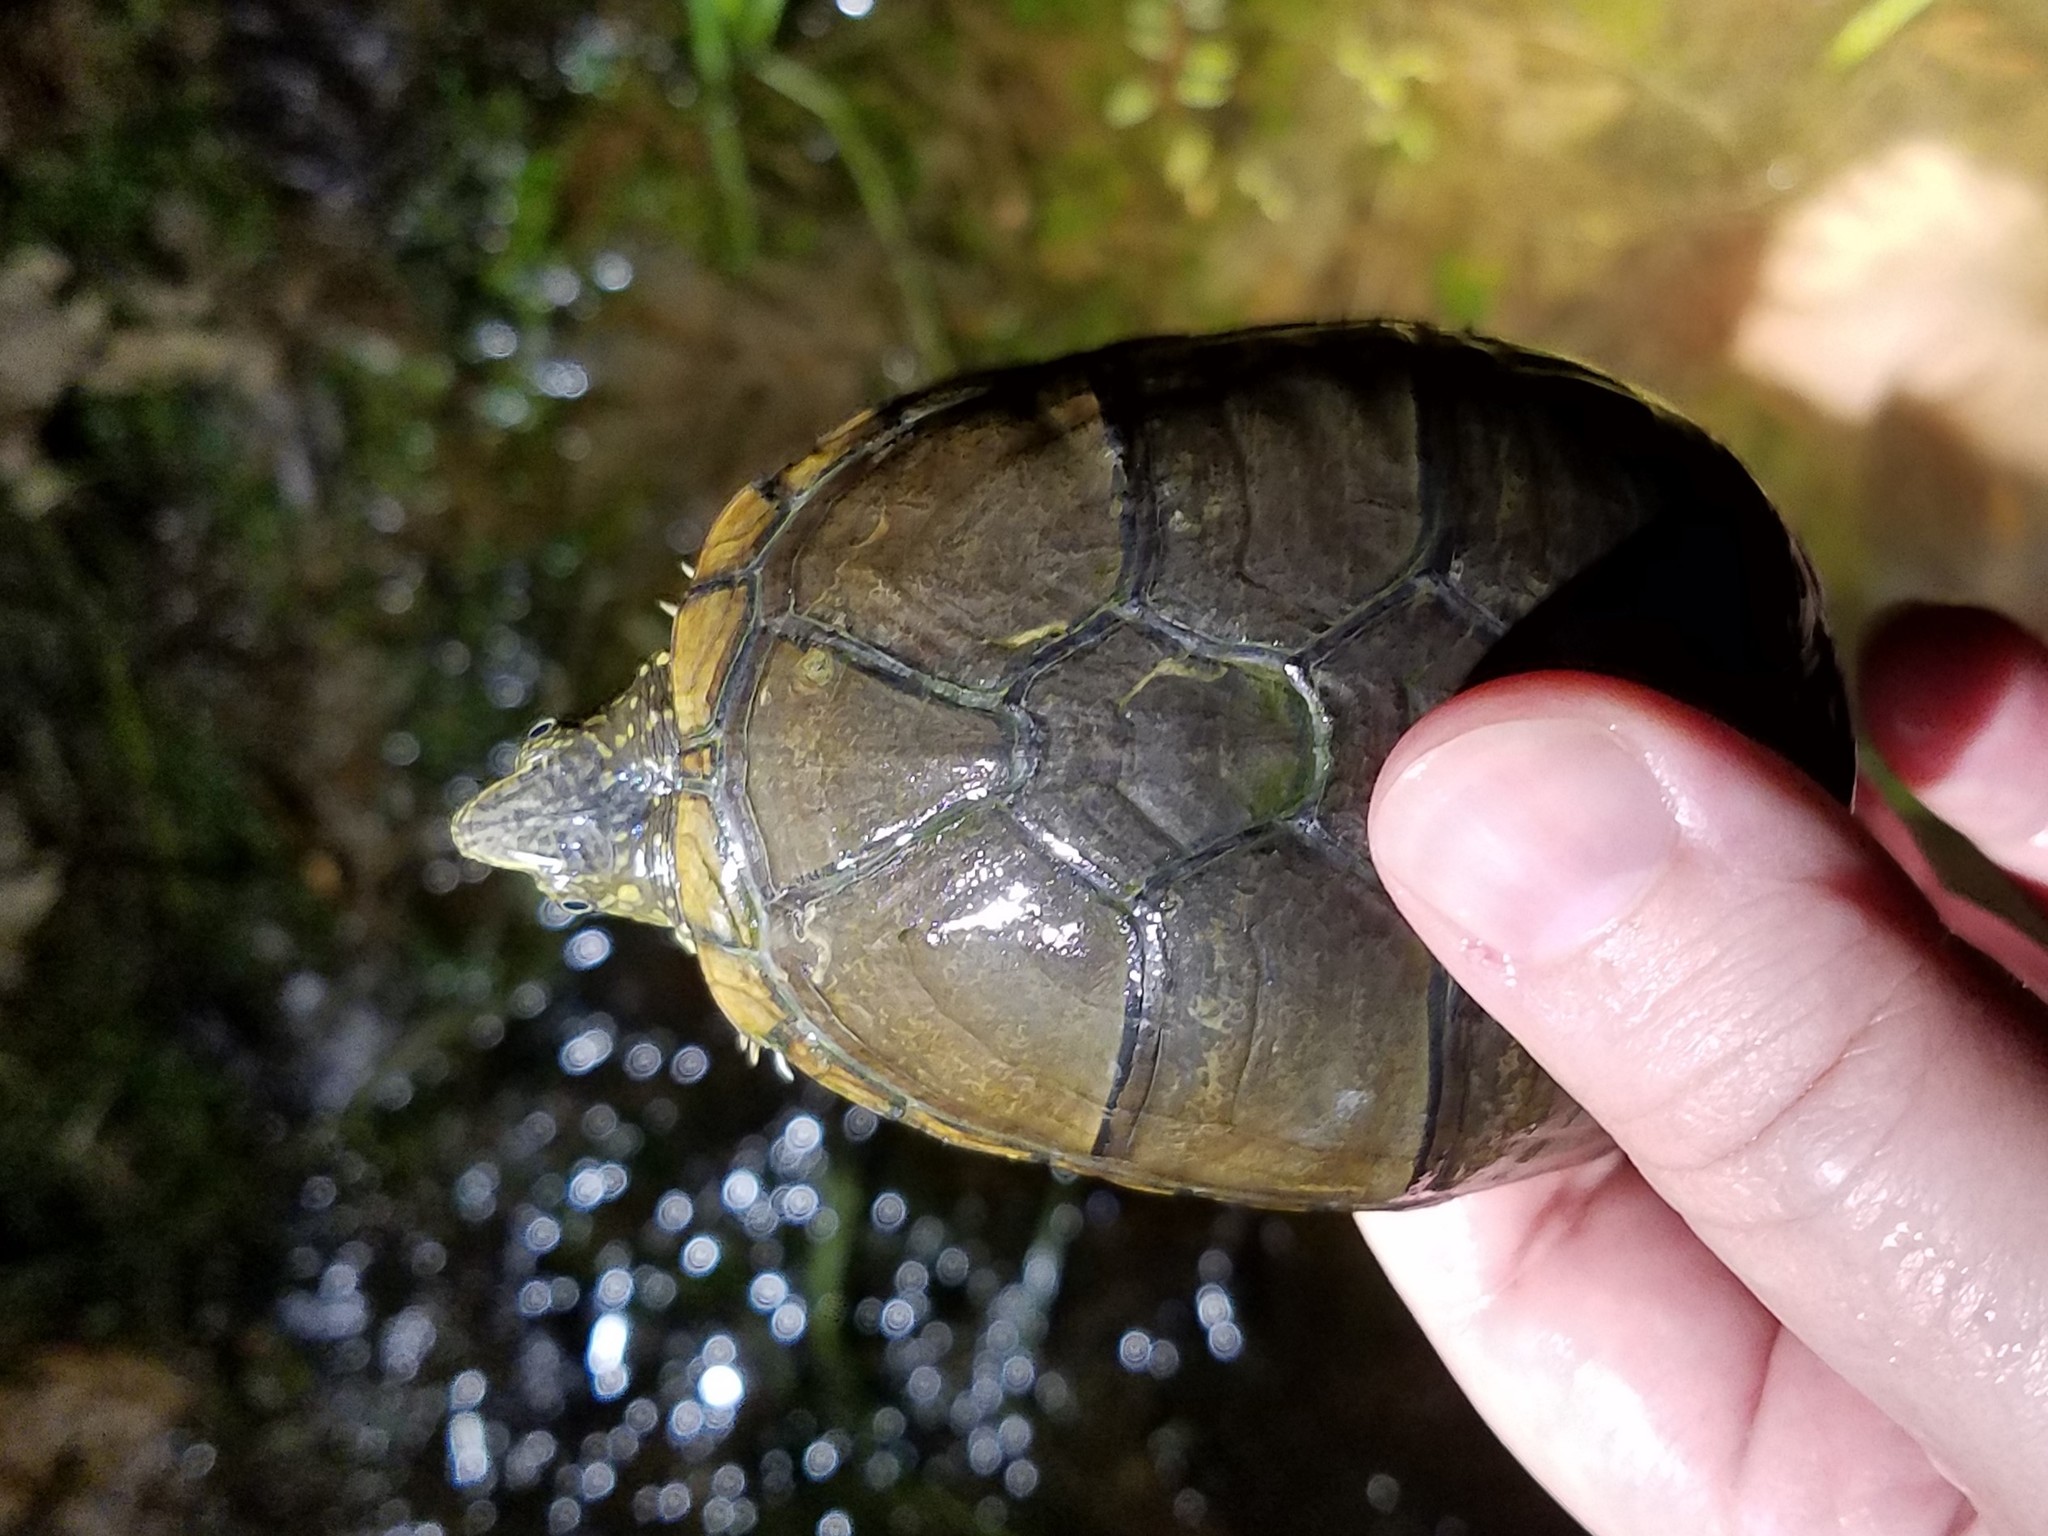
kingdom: Animalia
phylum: Chordata
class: Testudines
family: Kinosternidae
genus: Kinosternon
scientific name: Kinosternon subrubrum
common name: Eastern mud turtle
